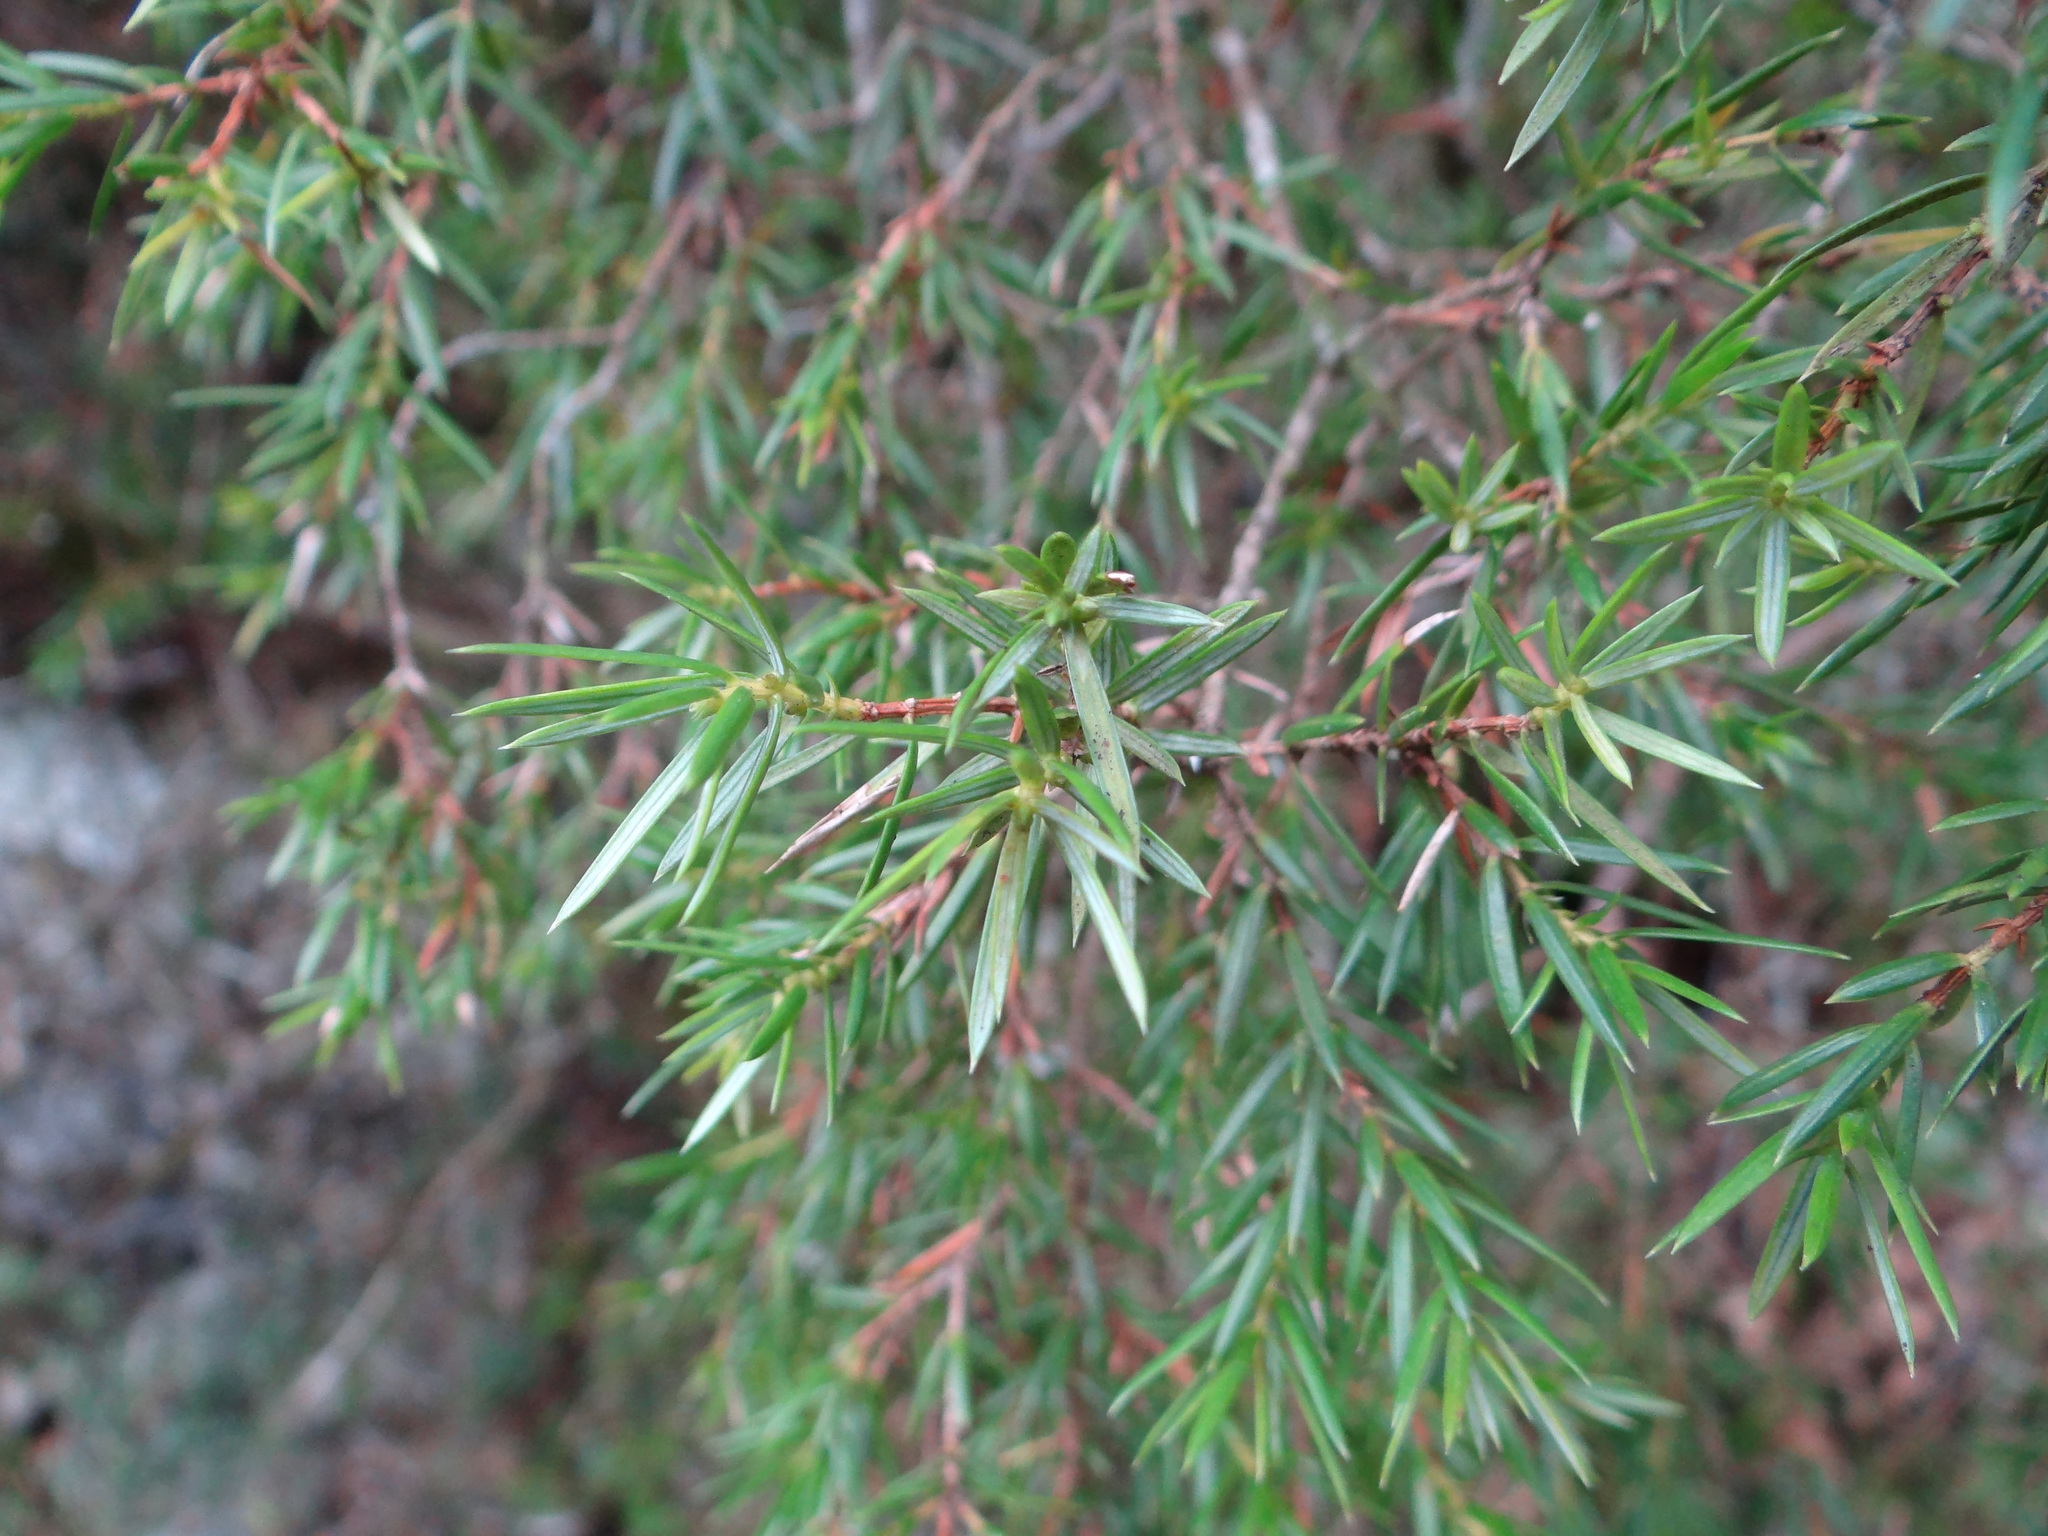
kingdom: Plantae
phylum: Tracheophyta
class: Pinopsida
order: Pinales
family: Cupressaceae
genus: Juniperus
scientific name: Juniperus formosana
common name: Formosan juniper
